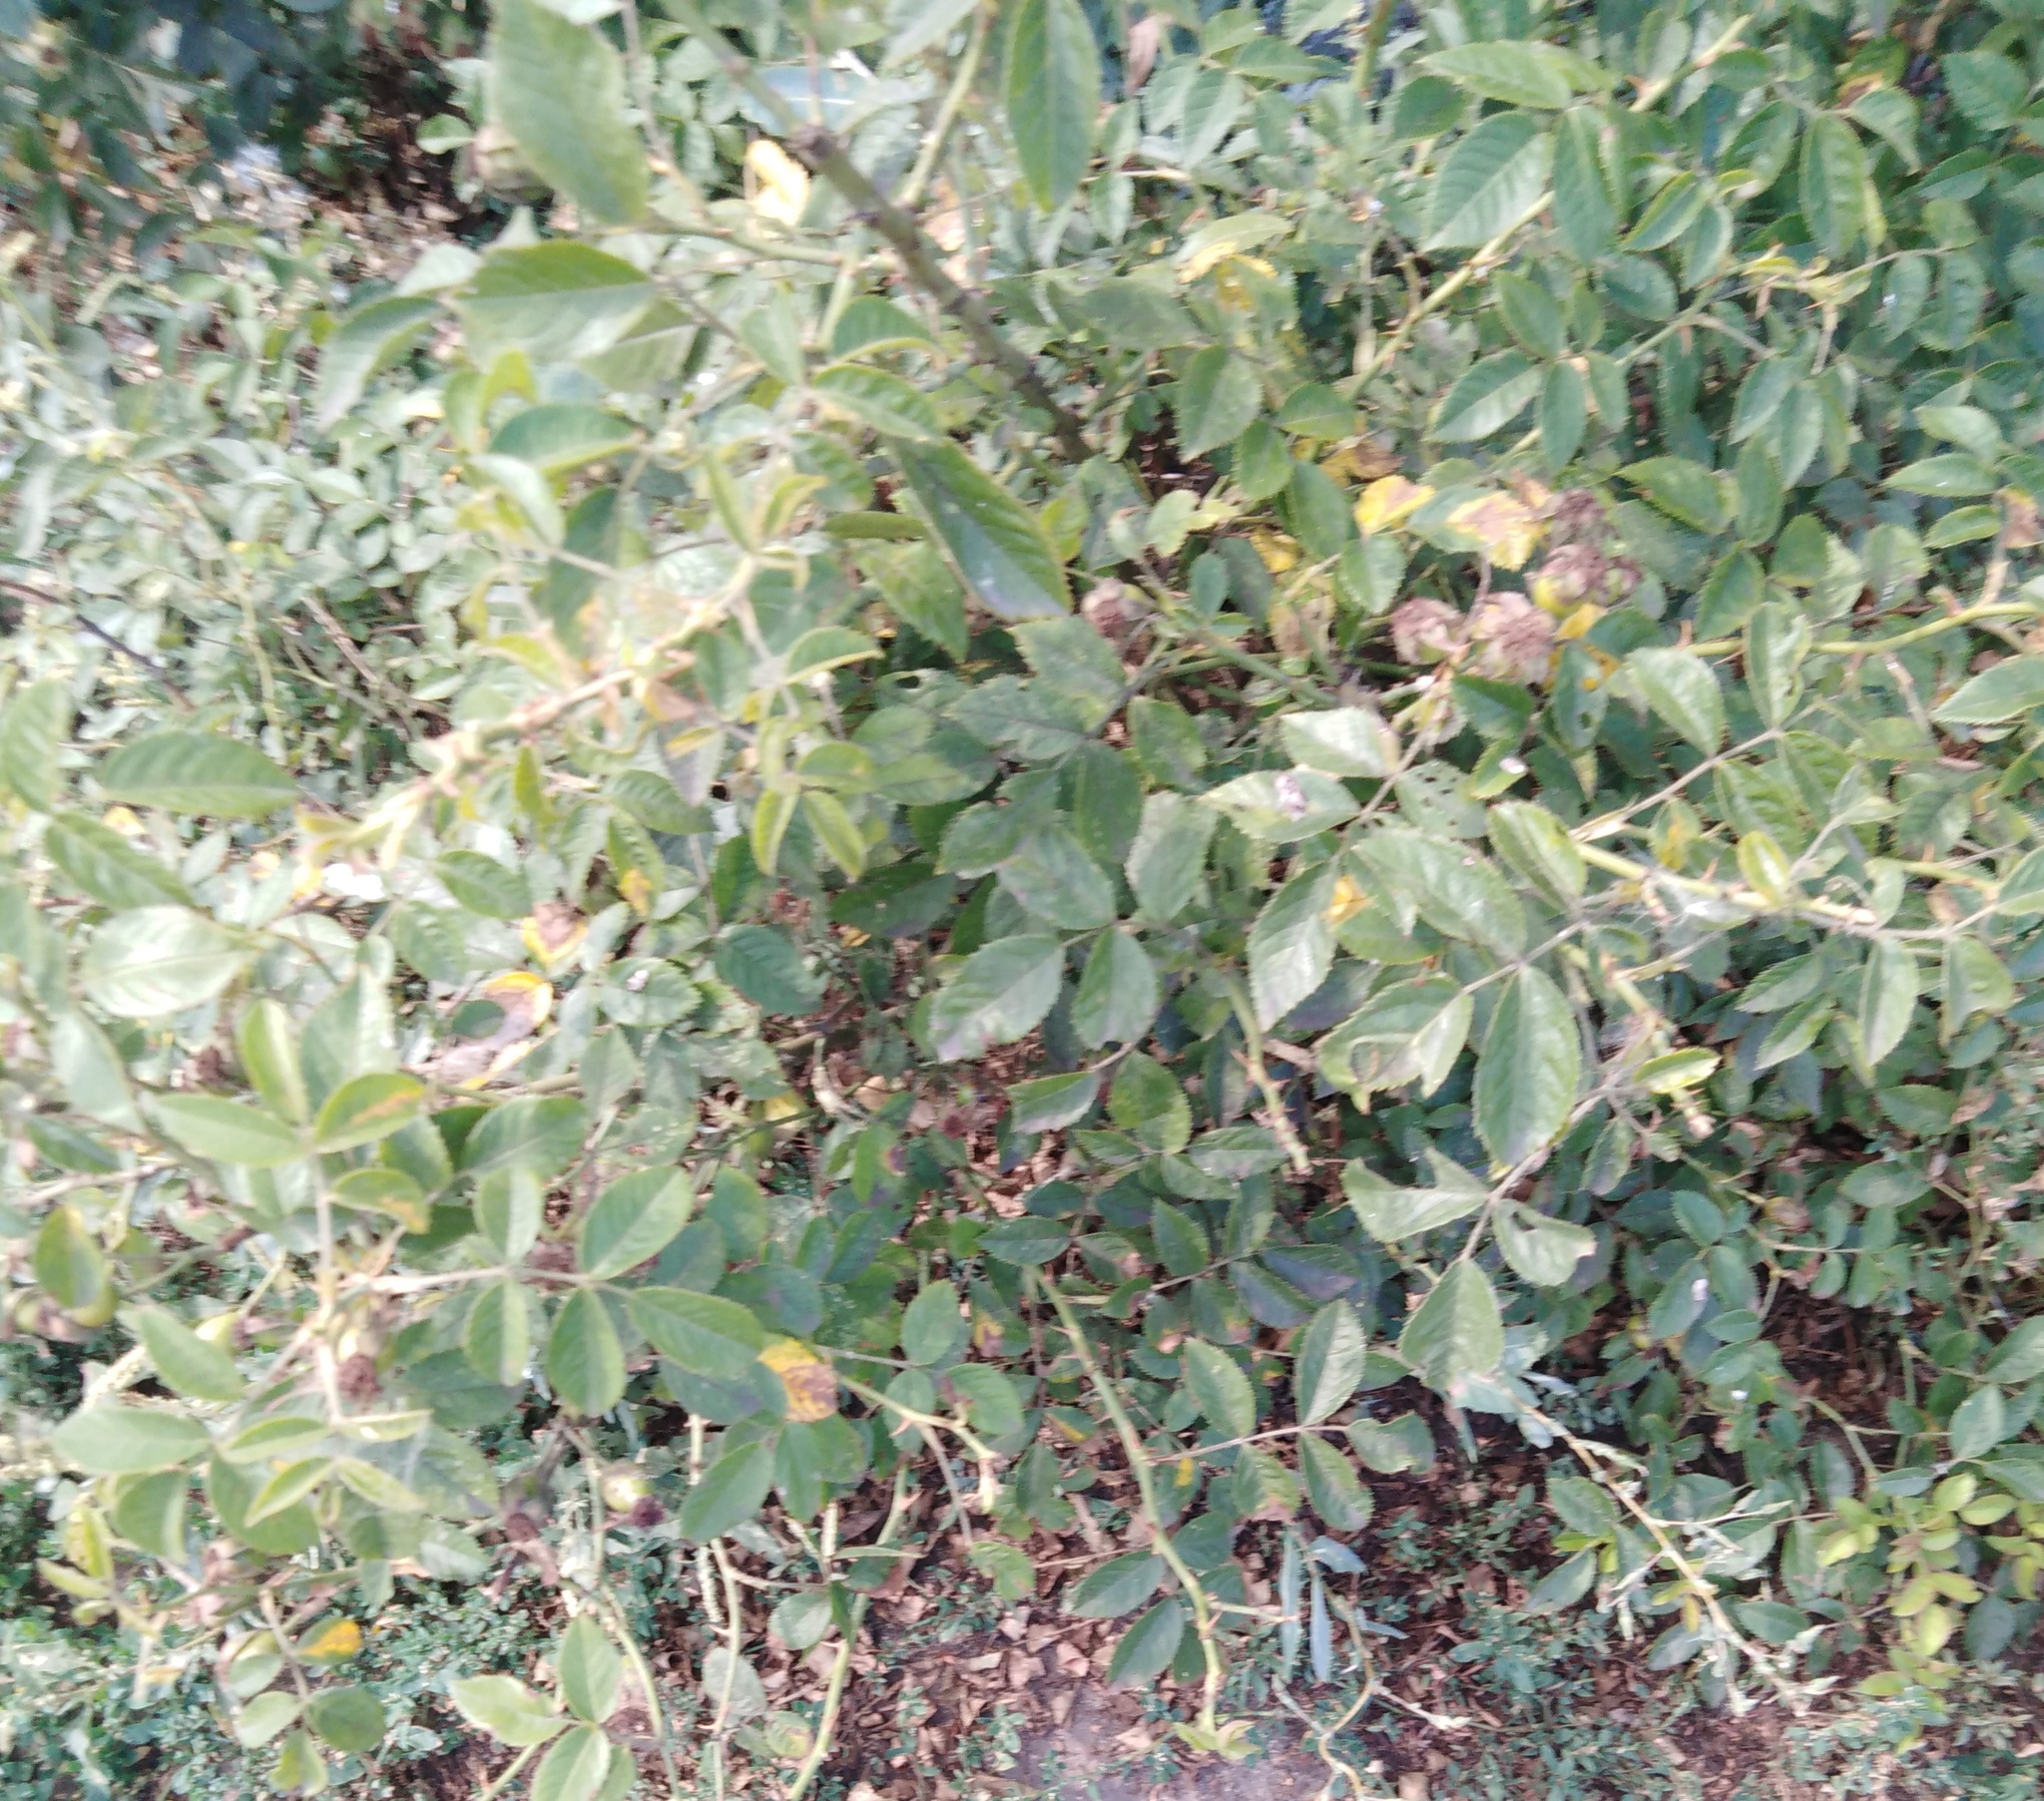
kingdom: Plantae
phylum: Tracheophyta
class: Magnoliopsida
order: Rosales
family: Rosaceae
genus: Rosa
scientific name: Rosa
